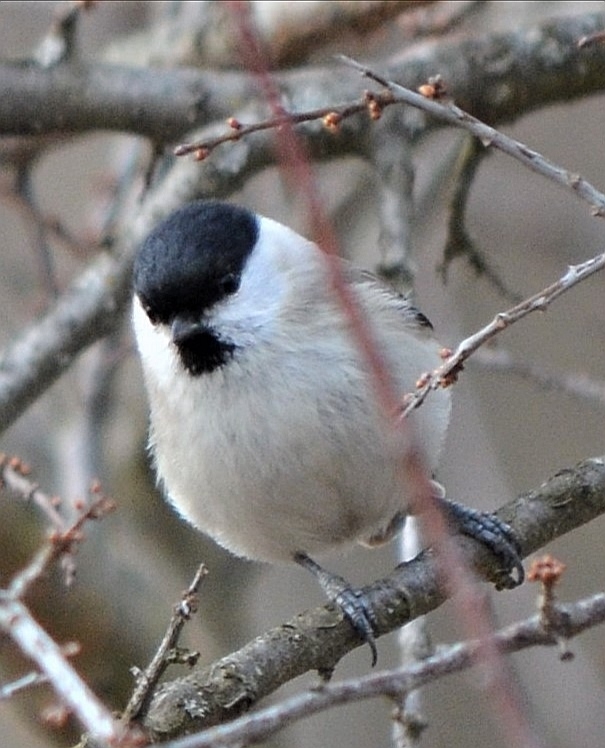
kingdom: Animalia
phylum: Chordata
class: Aves
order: Passeriformes
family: Paridae
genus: Poecile
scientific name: Poecile palustris
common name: Marsh tit
